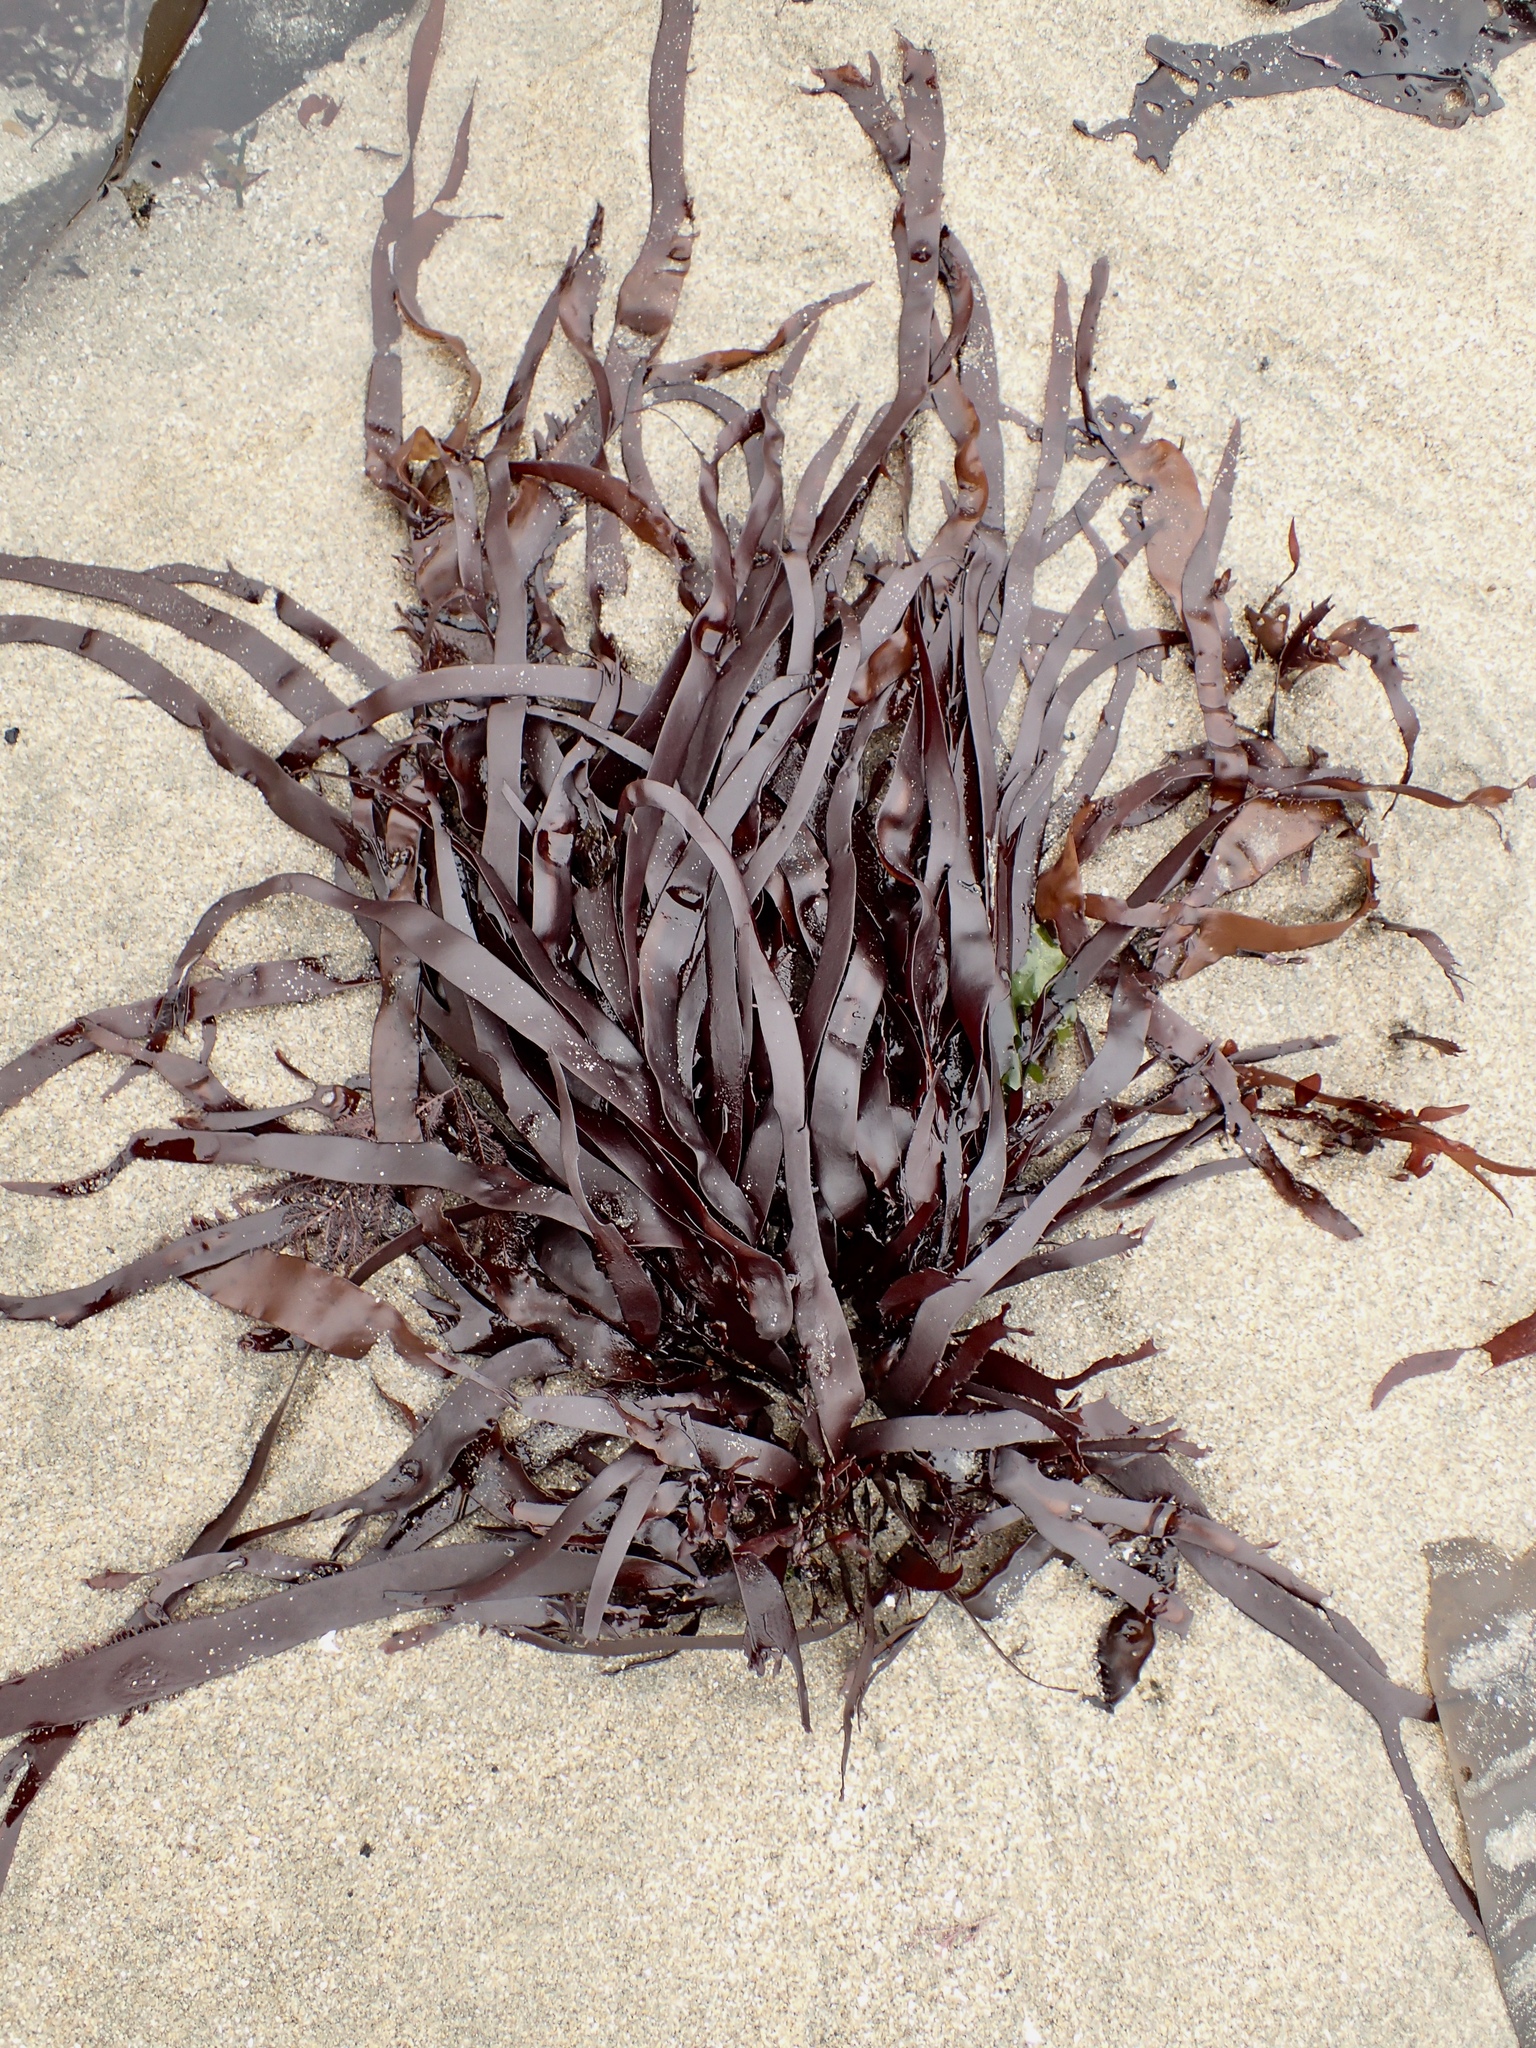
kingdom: Plantae
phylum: Rhodophyta
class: Florideophyceae
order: Halymeniales
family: Halymeniaceae
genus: Grateloupia
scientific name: Grateloupia Prionitis sternbergii
